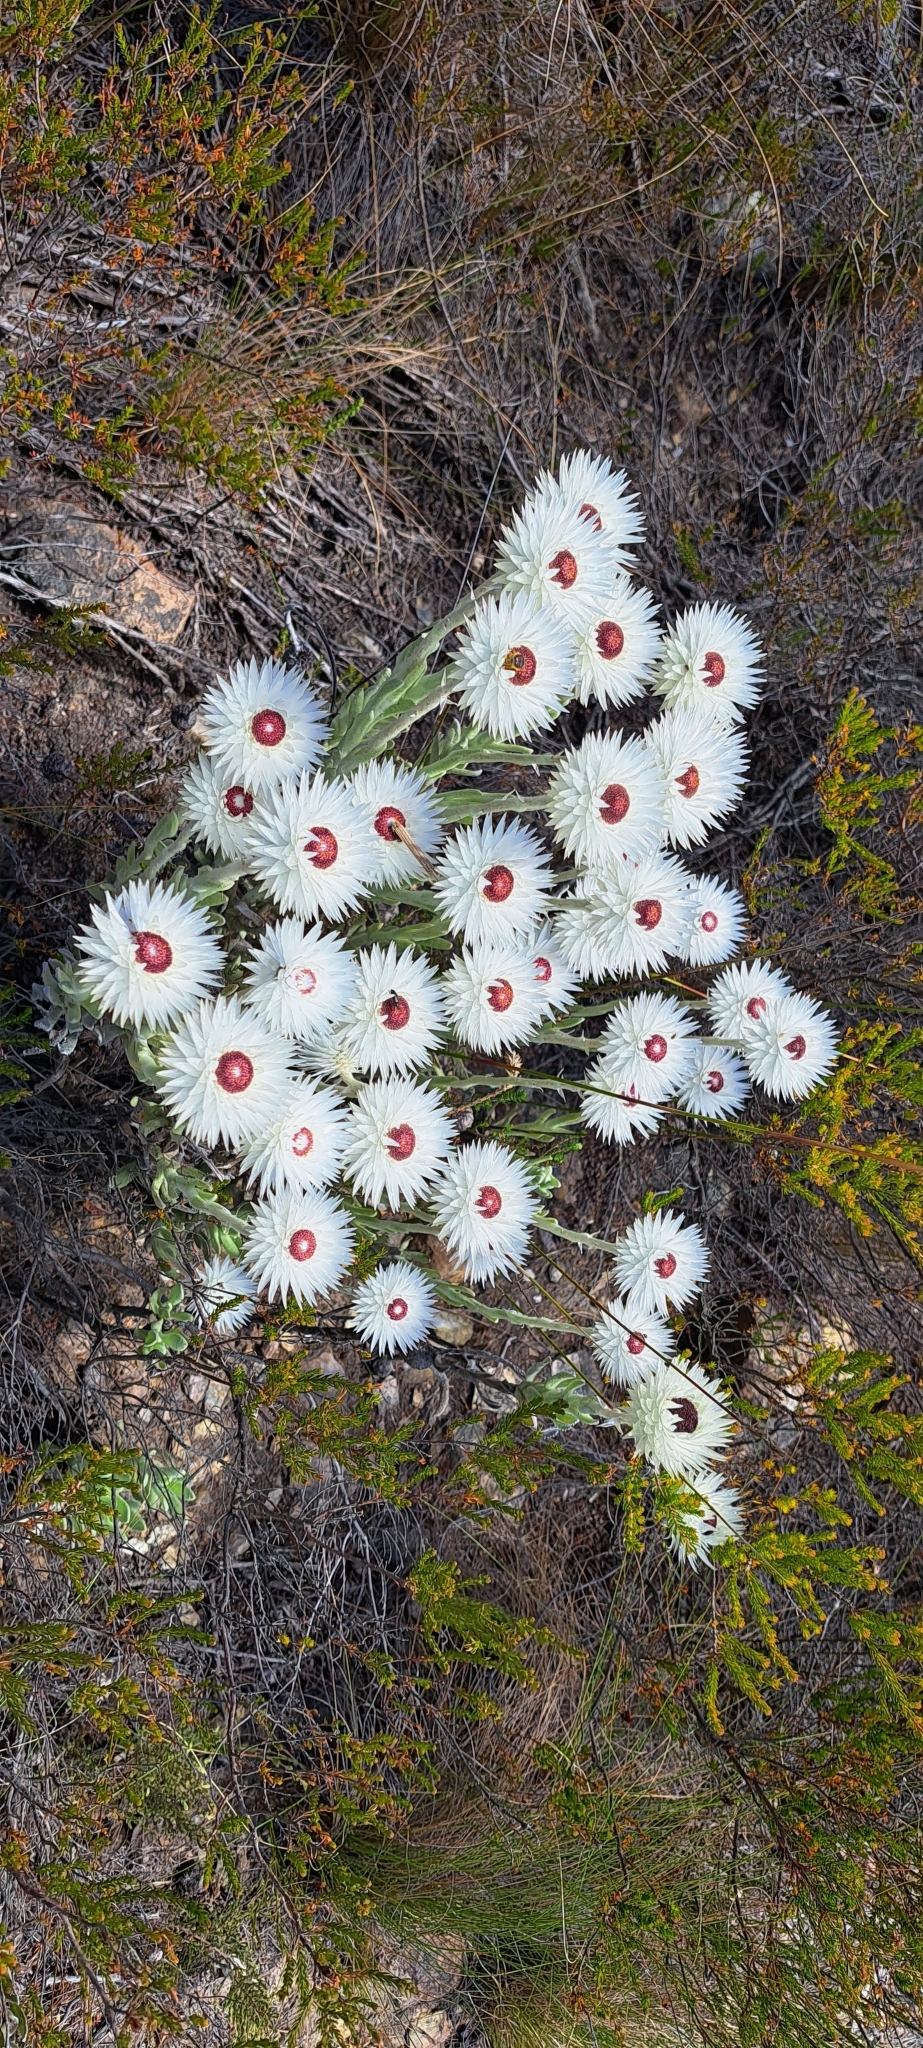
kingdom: Plantae
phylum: Tracheophyta
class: Magnoliopsida
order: Asterales
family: Asteraceae
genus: Syncarpha
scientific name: Syncarpha vestita
